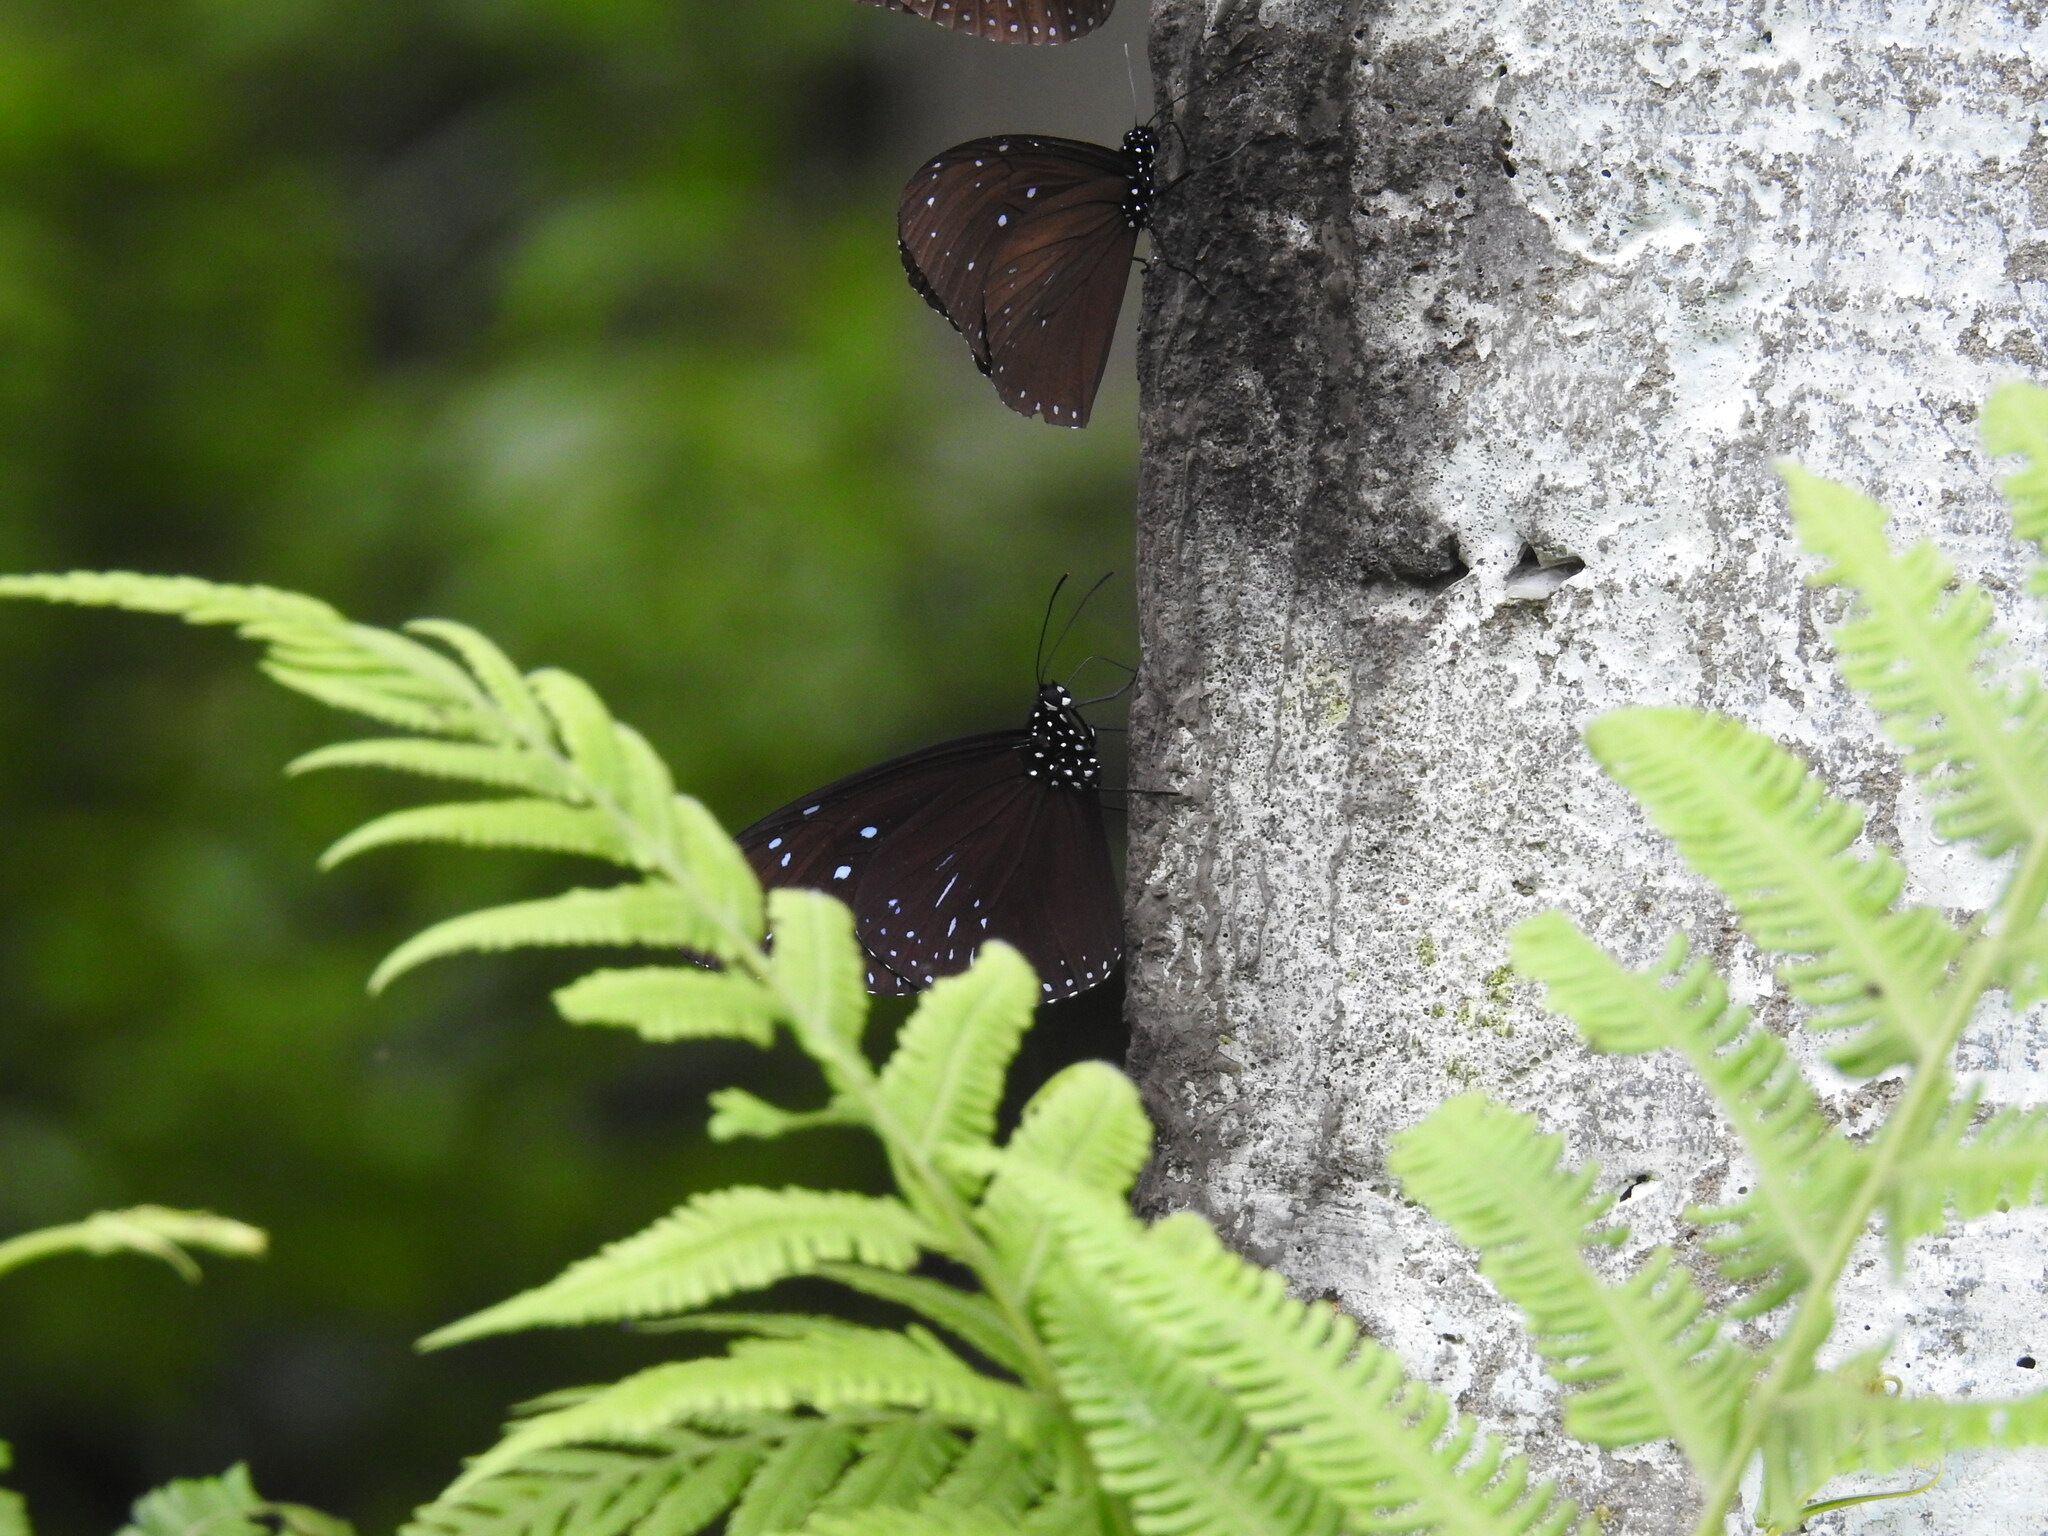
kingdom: Animalia
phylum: Arthropoda
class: Insecta
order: Lepidoptera
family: Nymphalidae
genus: Euploea
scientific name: Euploea mulciber
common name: Striped blue crow butterfly
